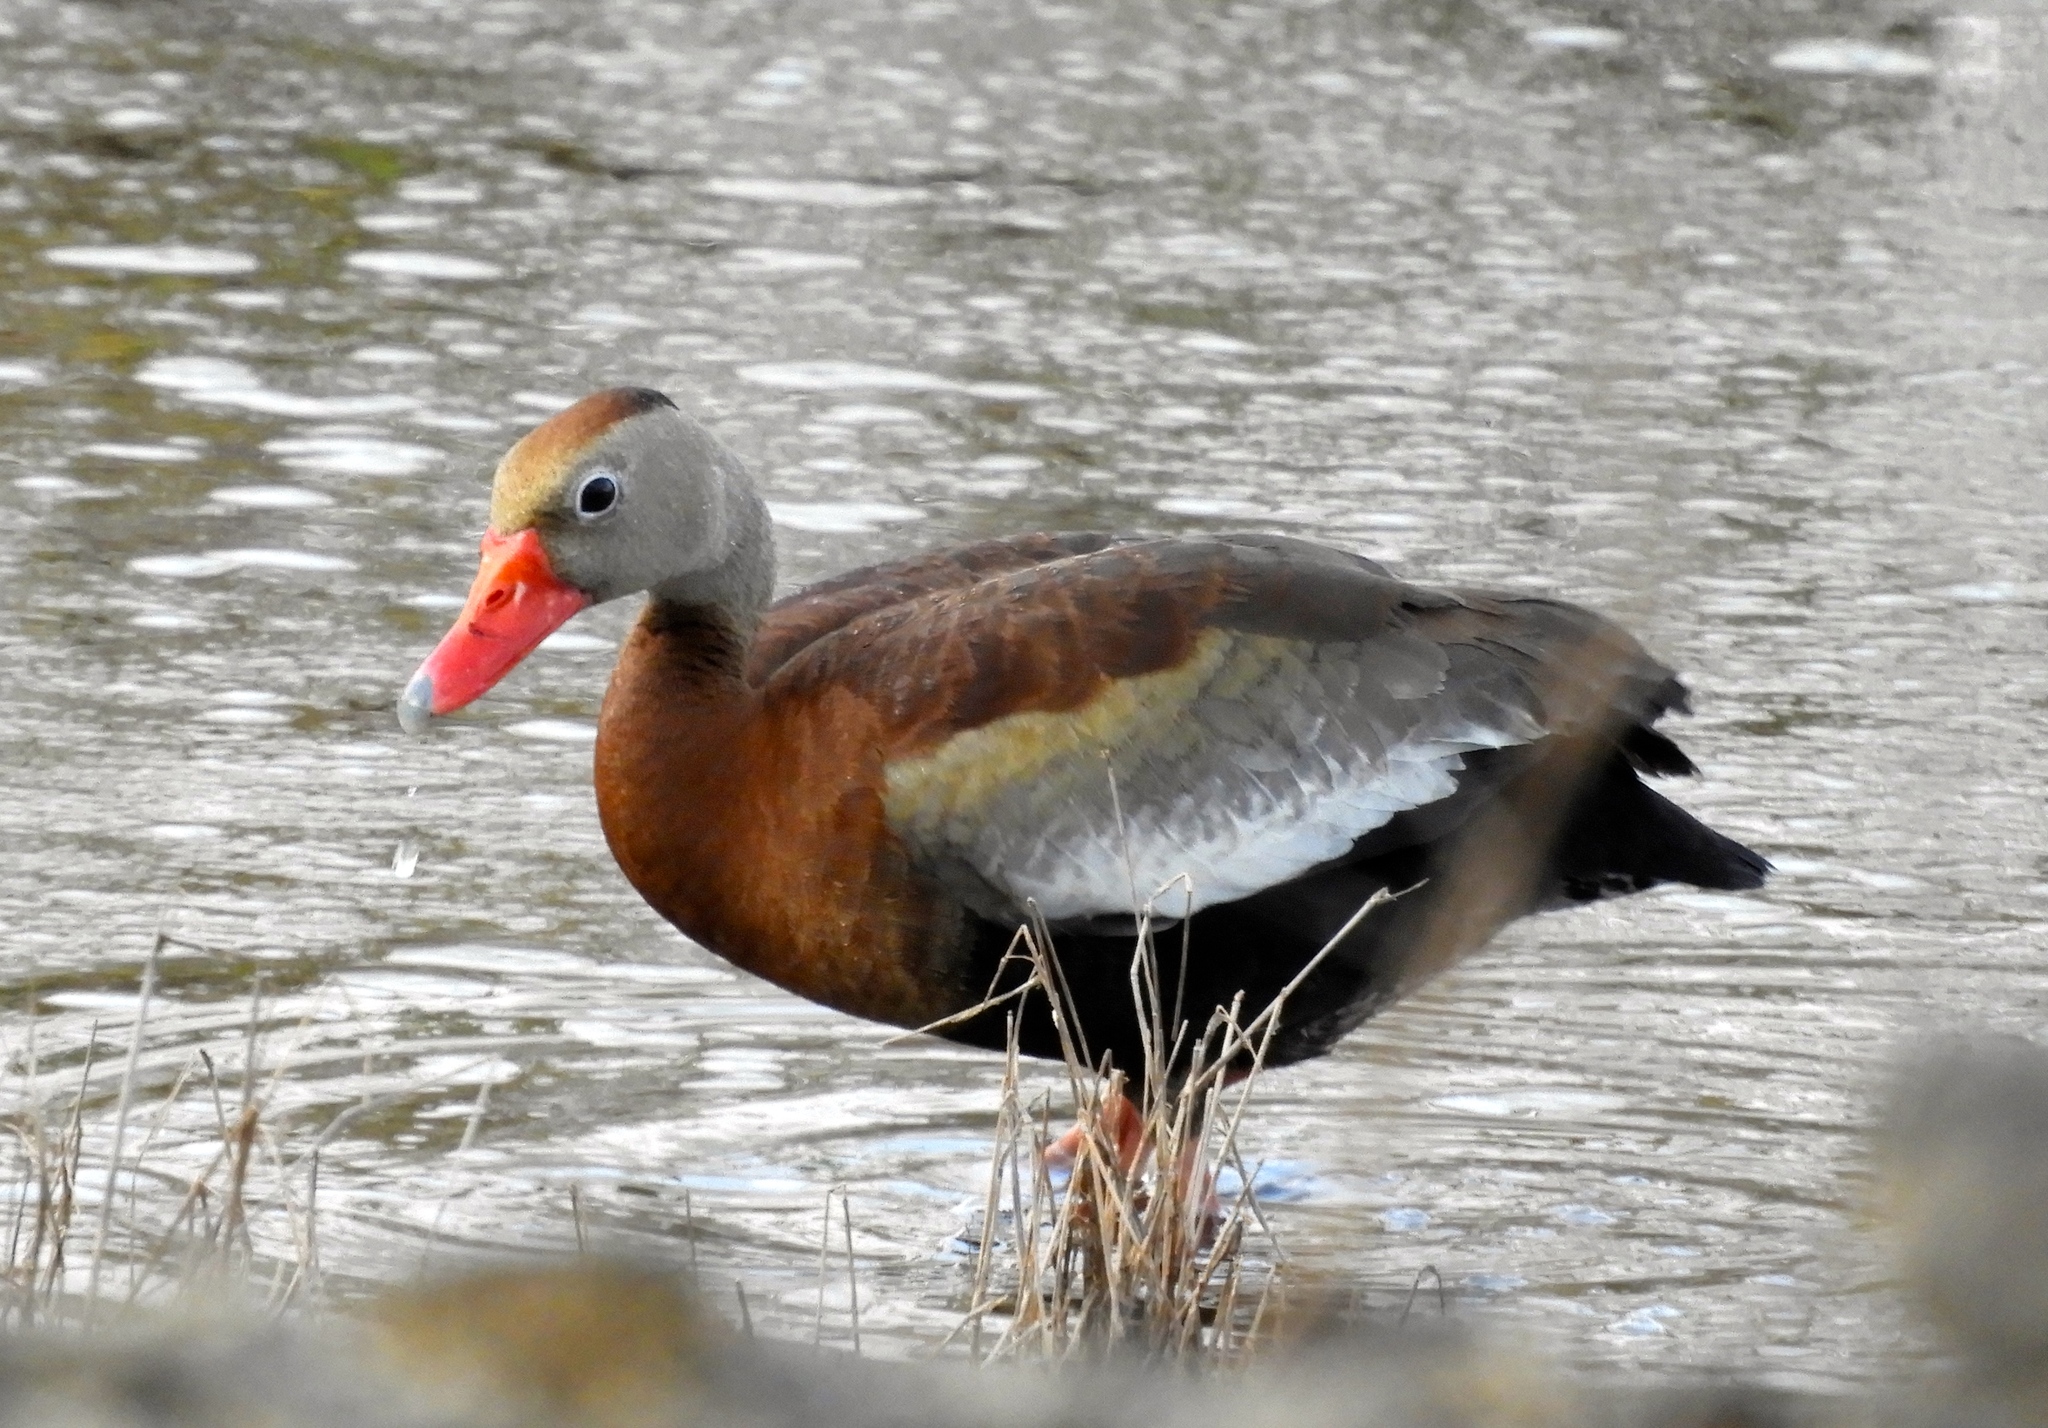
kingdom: Animalia
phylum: Chordata
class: Aves
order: Anseriformes
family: Anatidae
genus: Dendrocygna
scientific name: Dendrocygna autumnalis
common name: Black-bellied whistling duck
